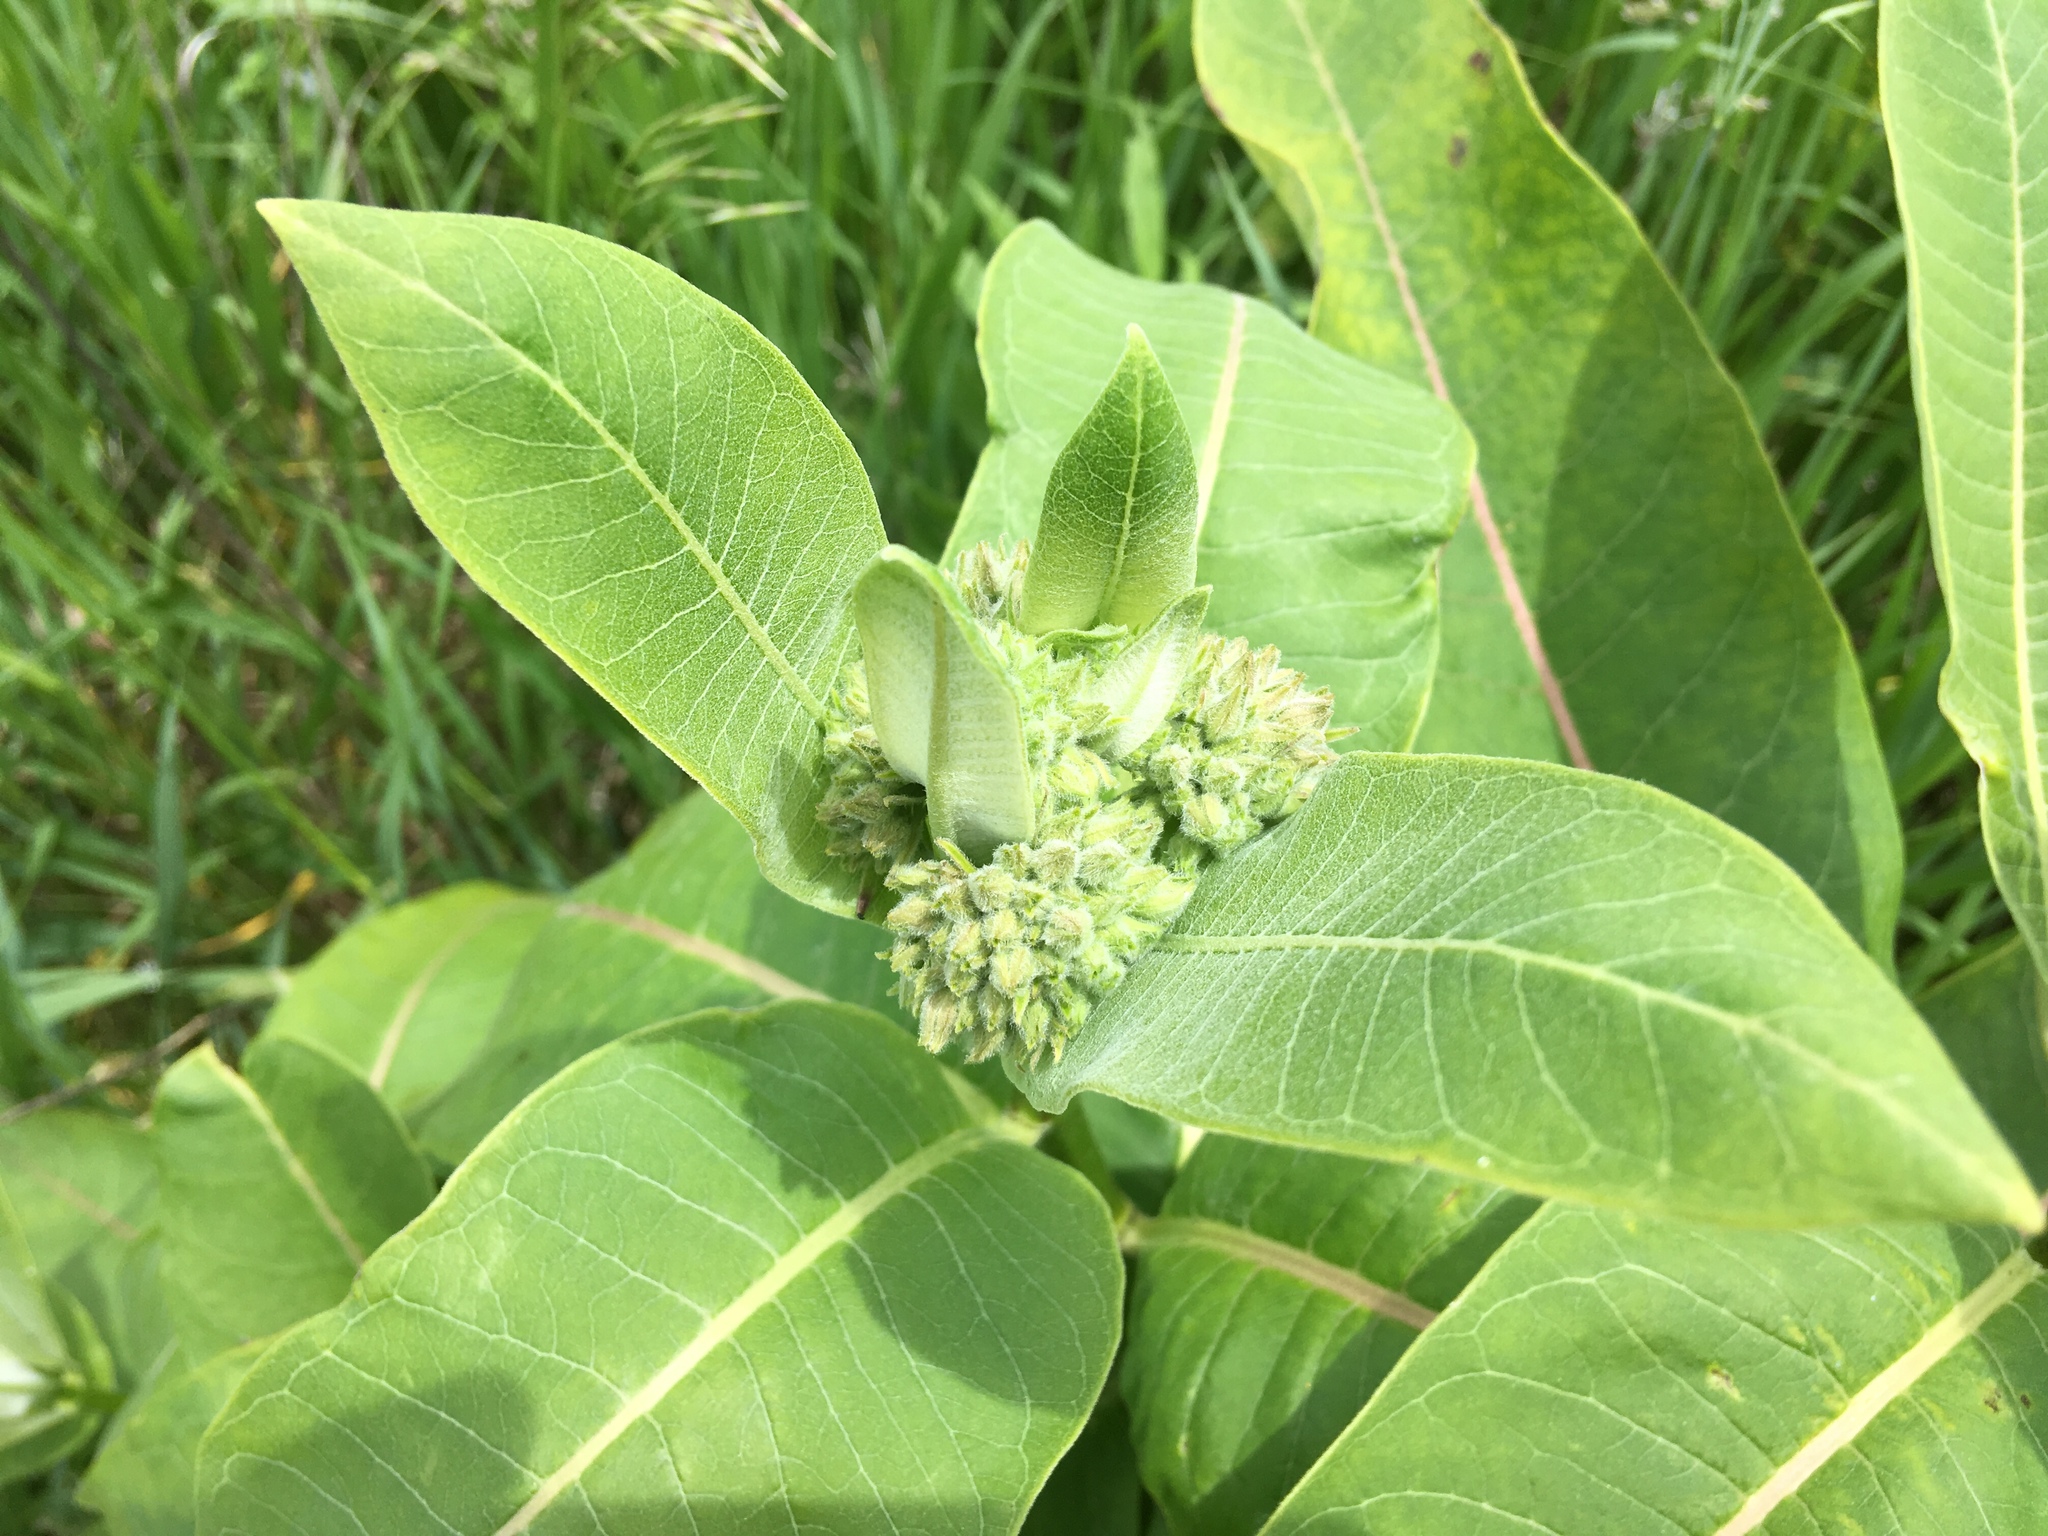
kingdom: Plantae
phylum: Tracheophyta
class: Magnoliopsida
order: Gentianales
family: Apocynaceae
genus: Asclepias
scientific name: Asclepias syriaca
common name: Common milkweed
